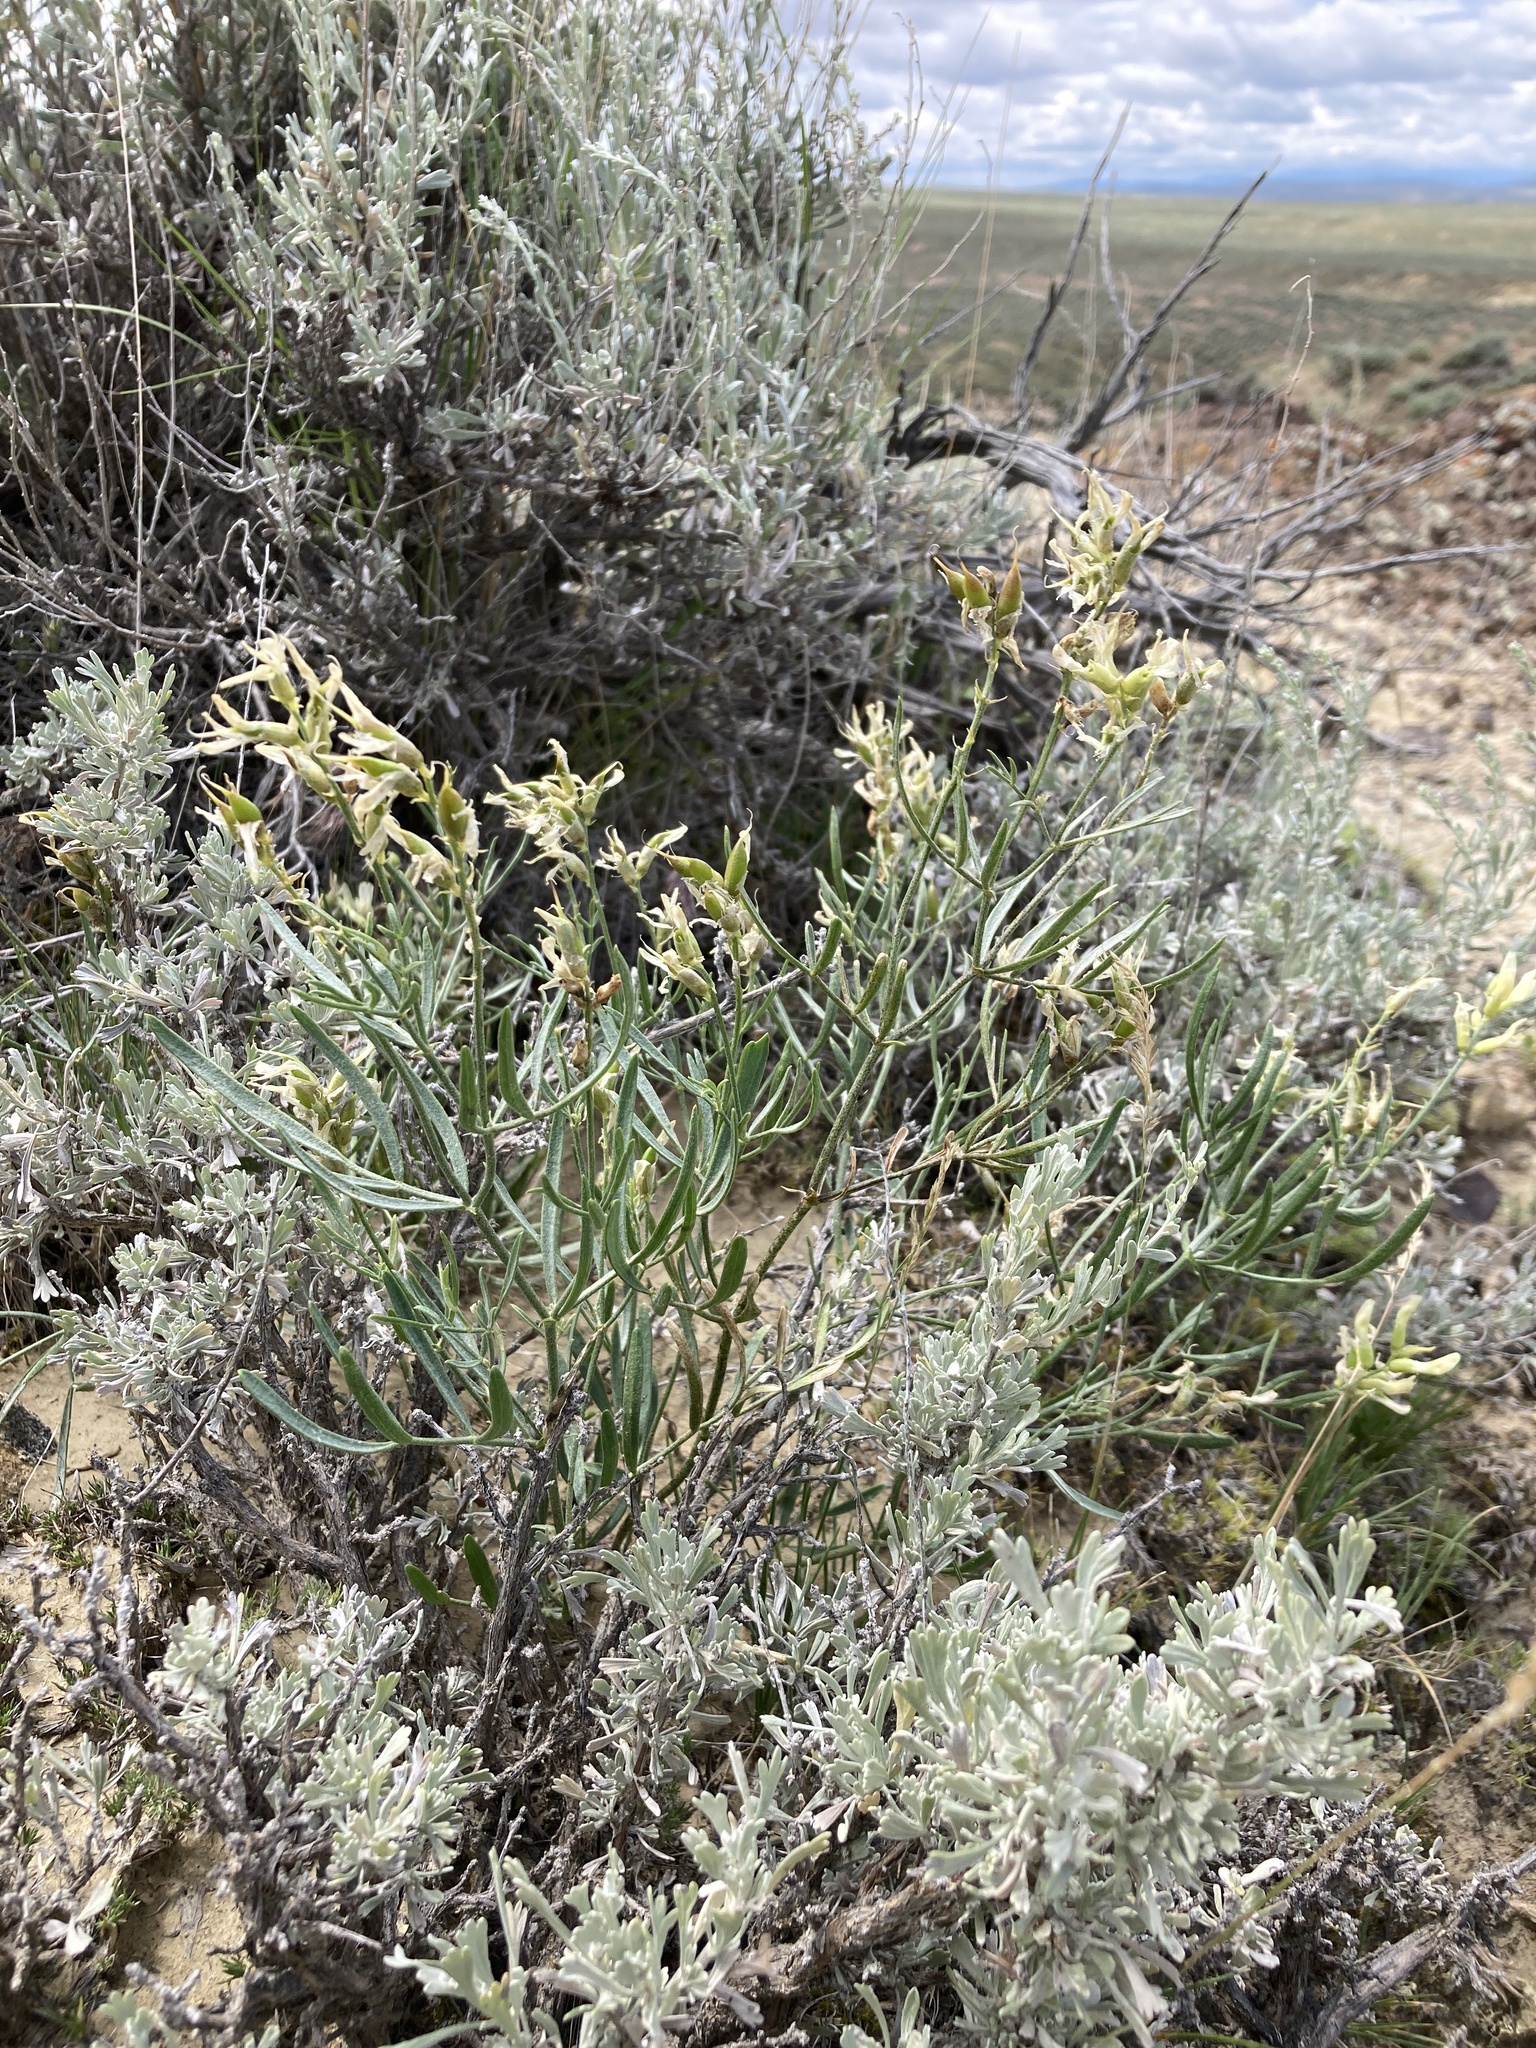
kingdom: Plantae
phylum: Tracheophyta
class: Magnoliopsida
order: Fabales
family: Fabaceae
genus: Astragalus
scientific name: Astragalus grayi
